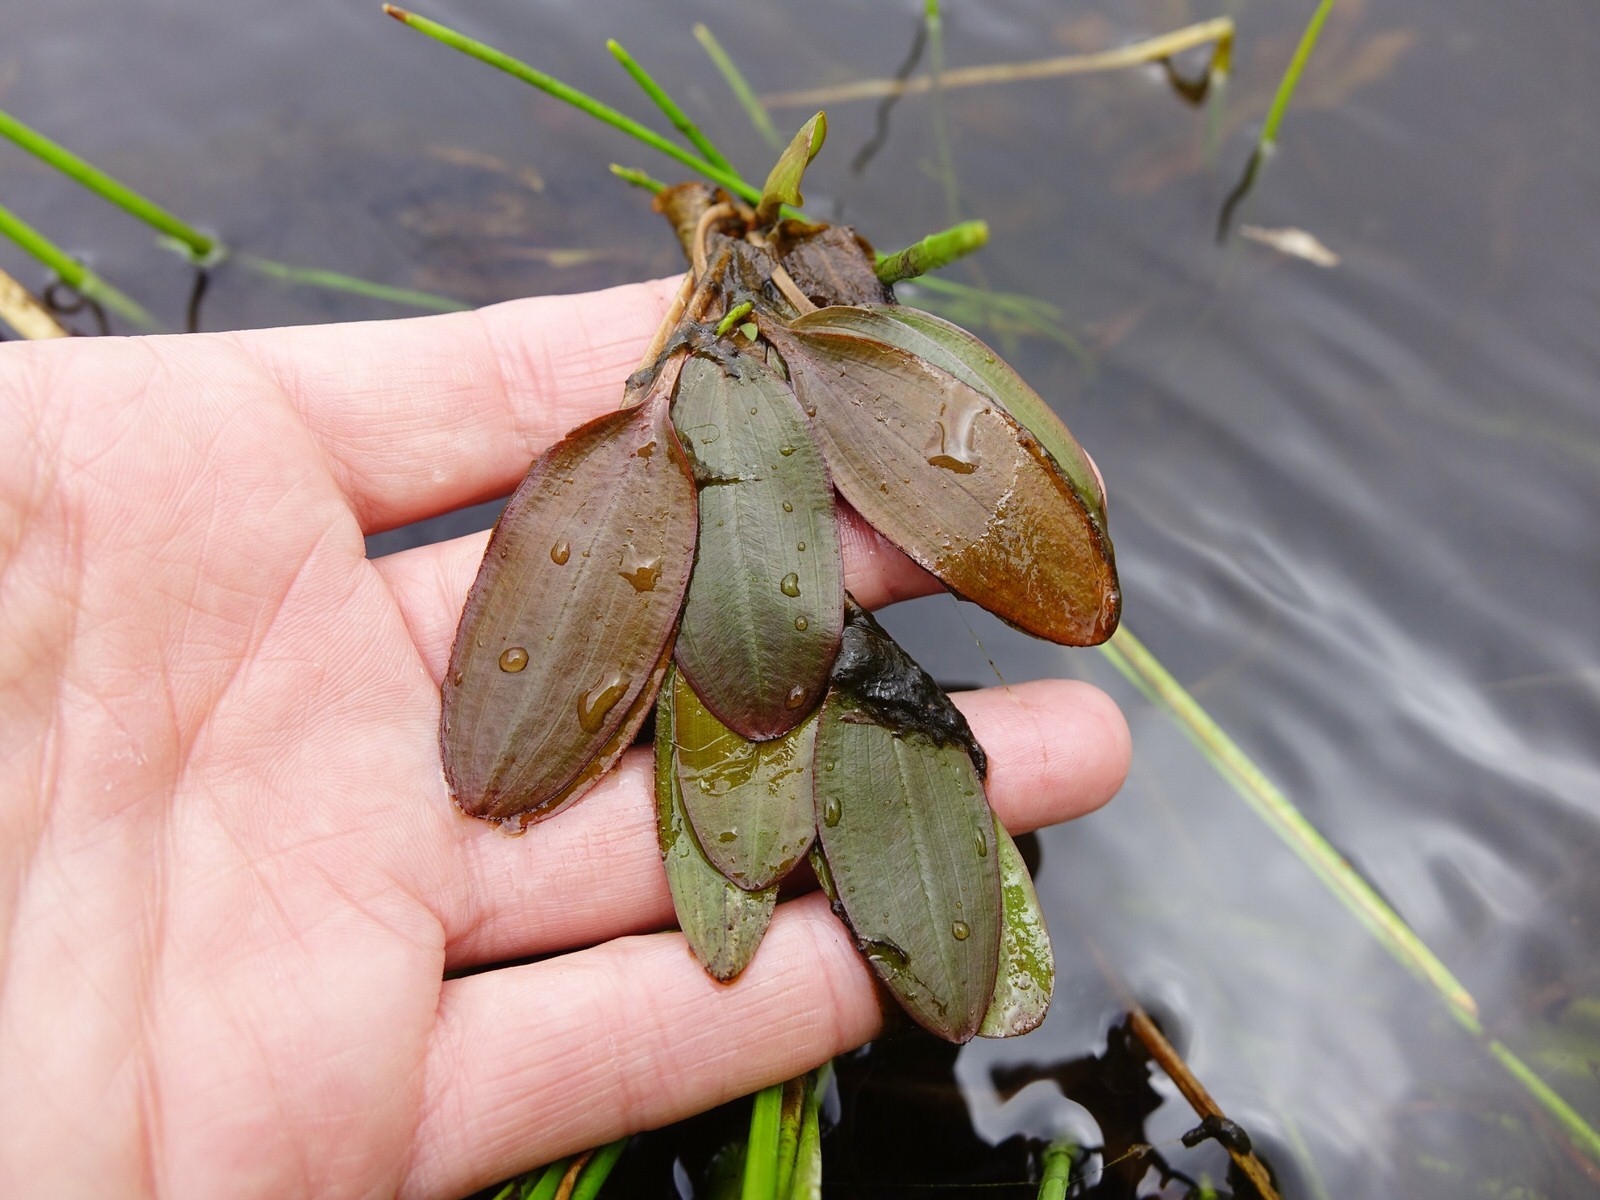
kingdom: Plantae
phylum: Tracheophyta
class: Liliopsida
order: Alismatales
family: Potamogetonaceae
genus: Potamogeton
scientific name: Potamogeton cheesemanii
